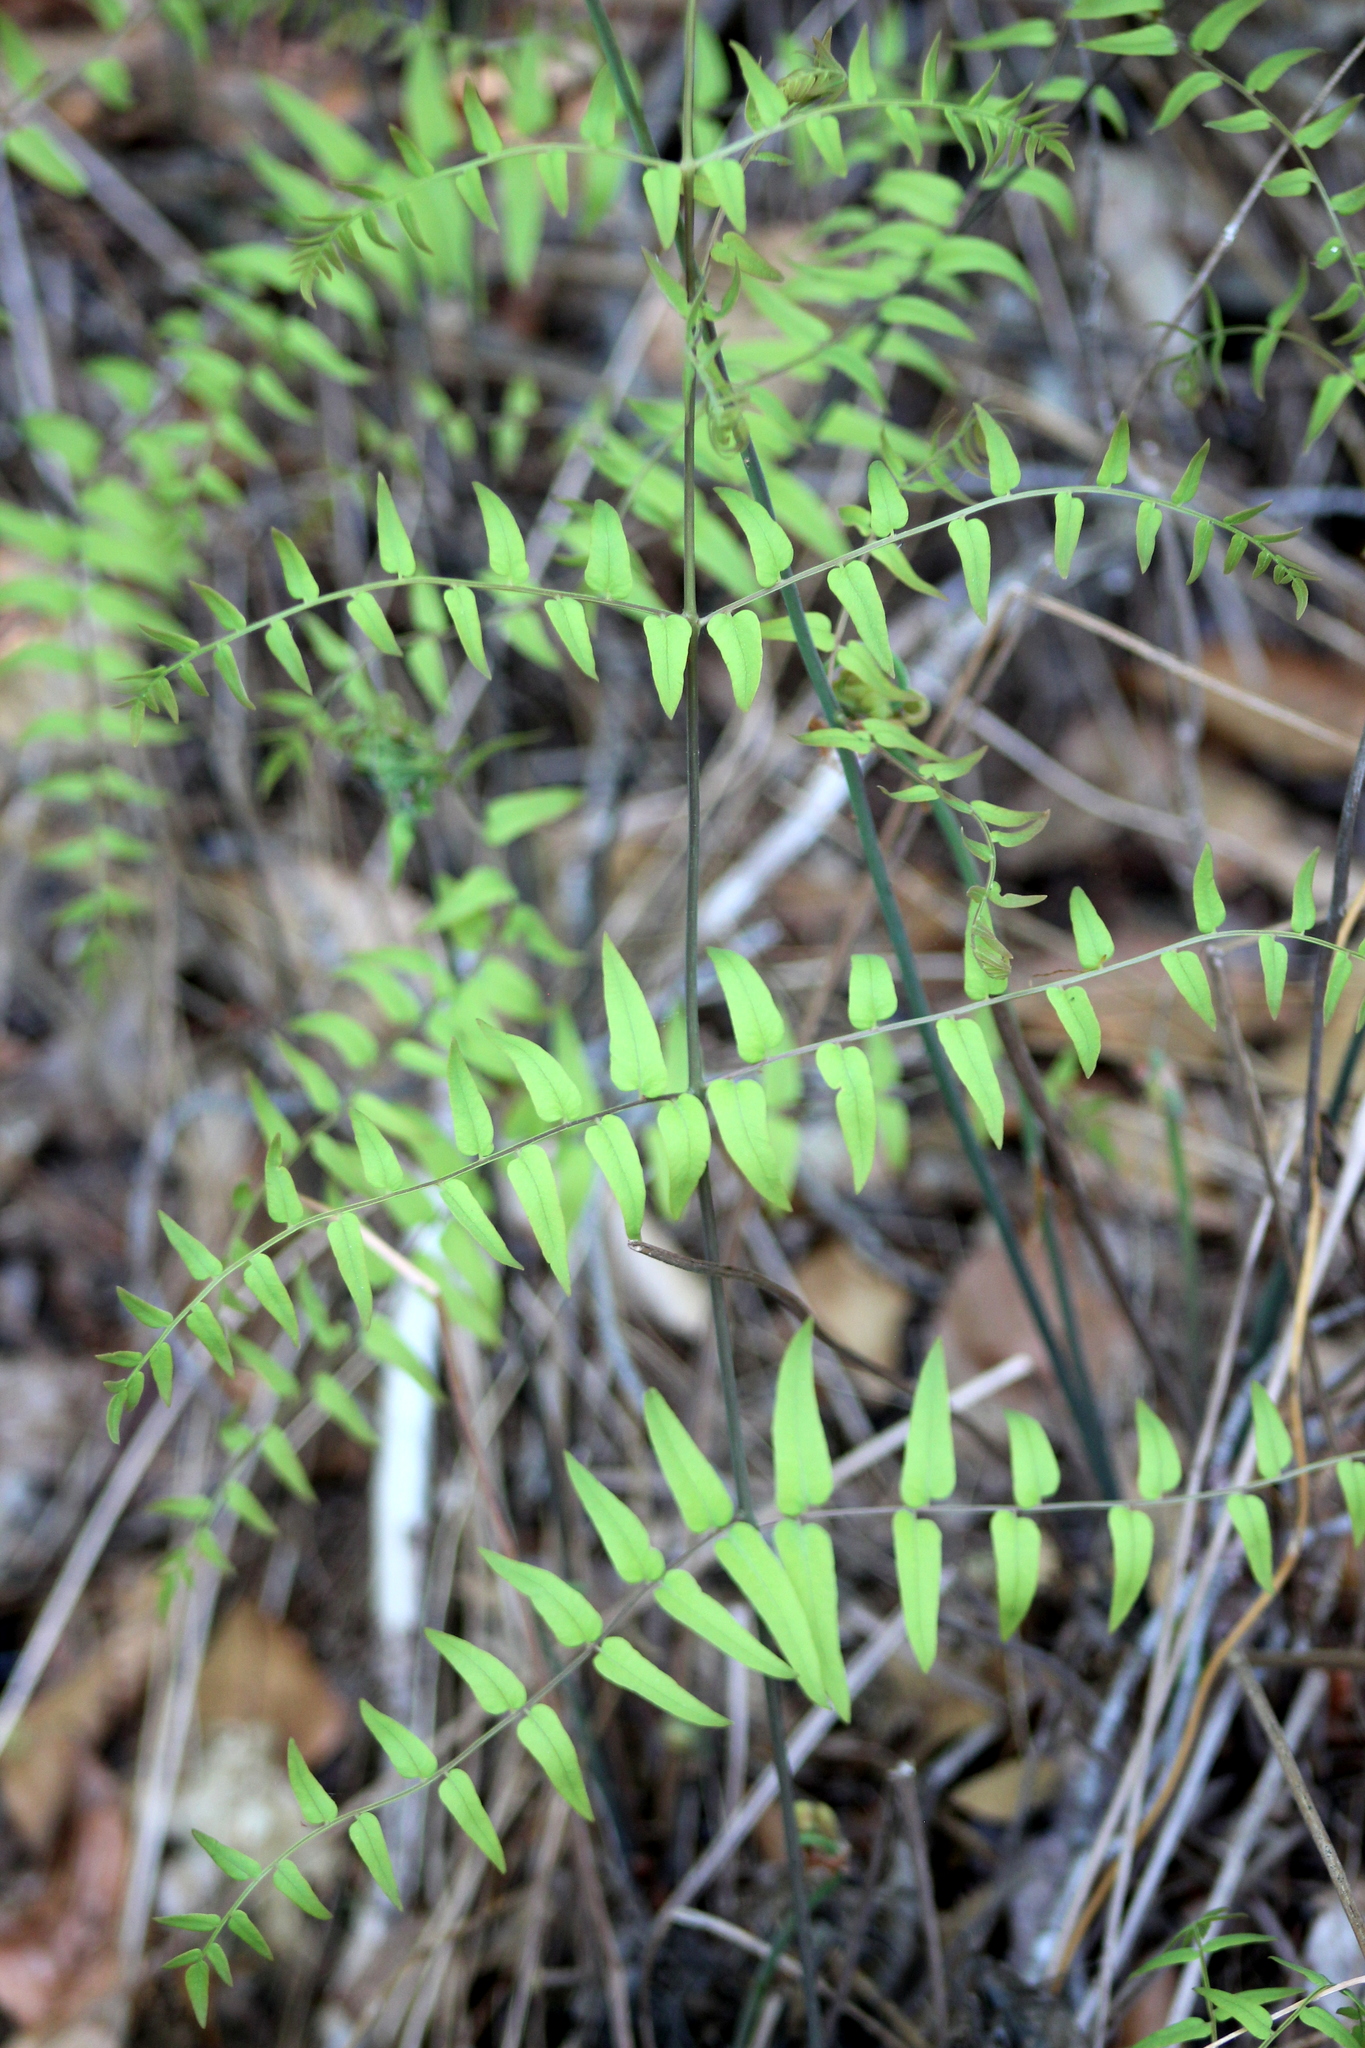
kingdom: Plantae
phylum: Tracheophyta
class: Polypodiopsida
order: Osmundales
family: Osmundaceae
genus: Osmunda
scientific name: Osmunda spectabilis
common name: American royal fern
